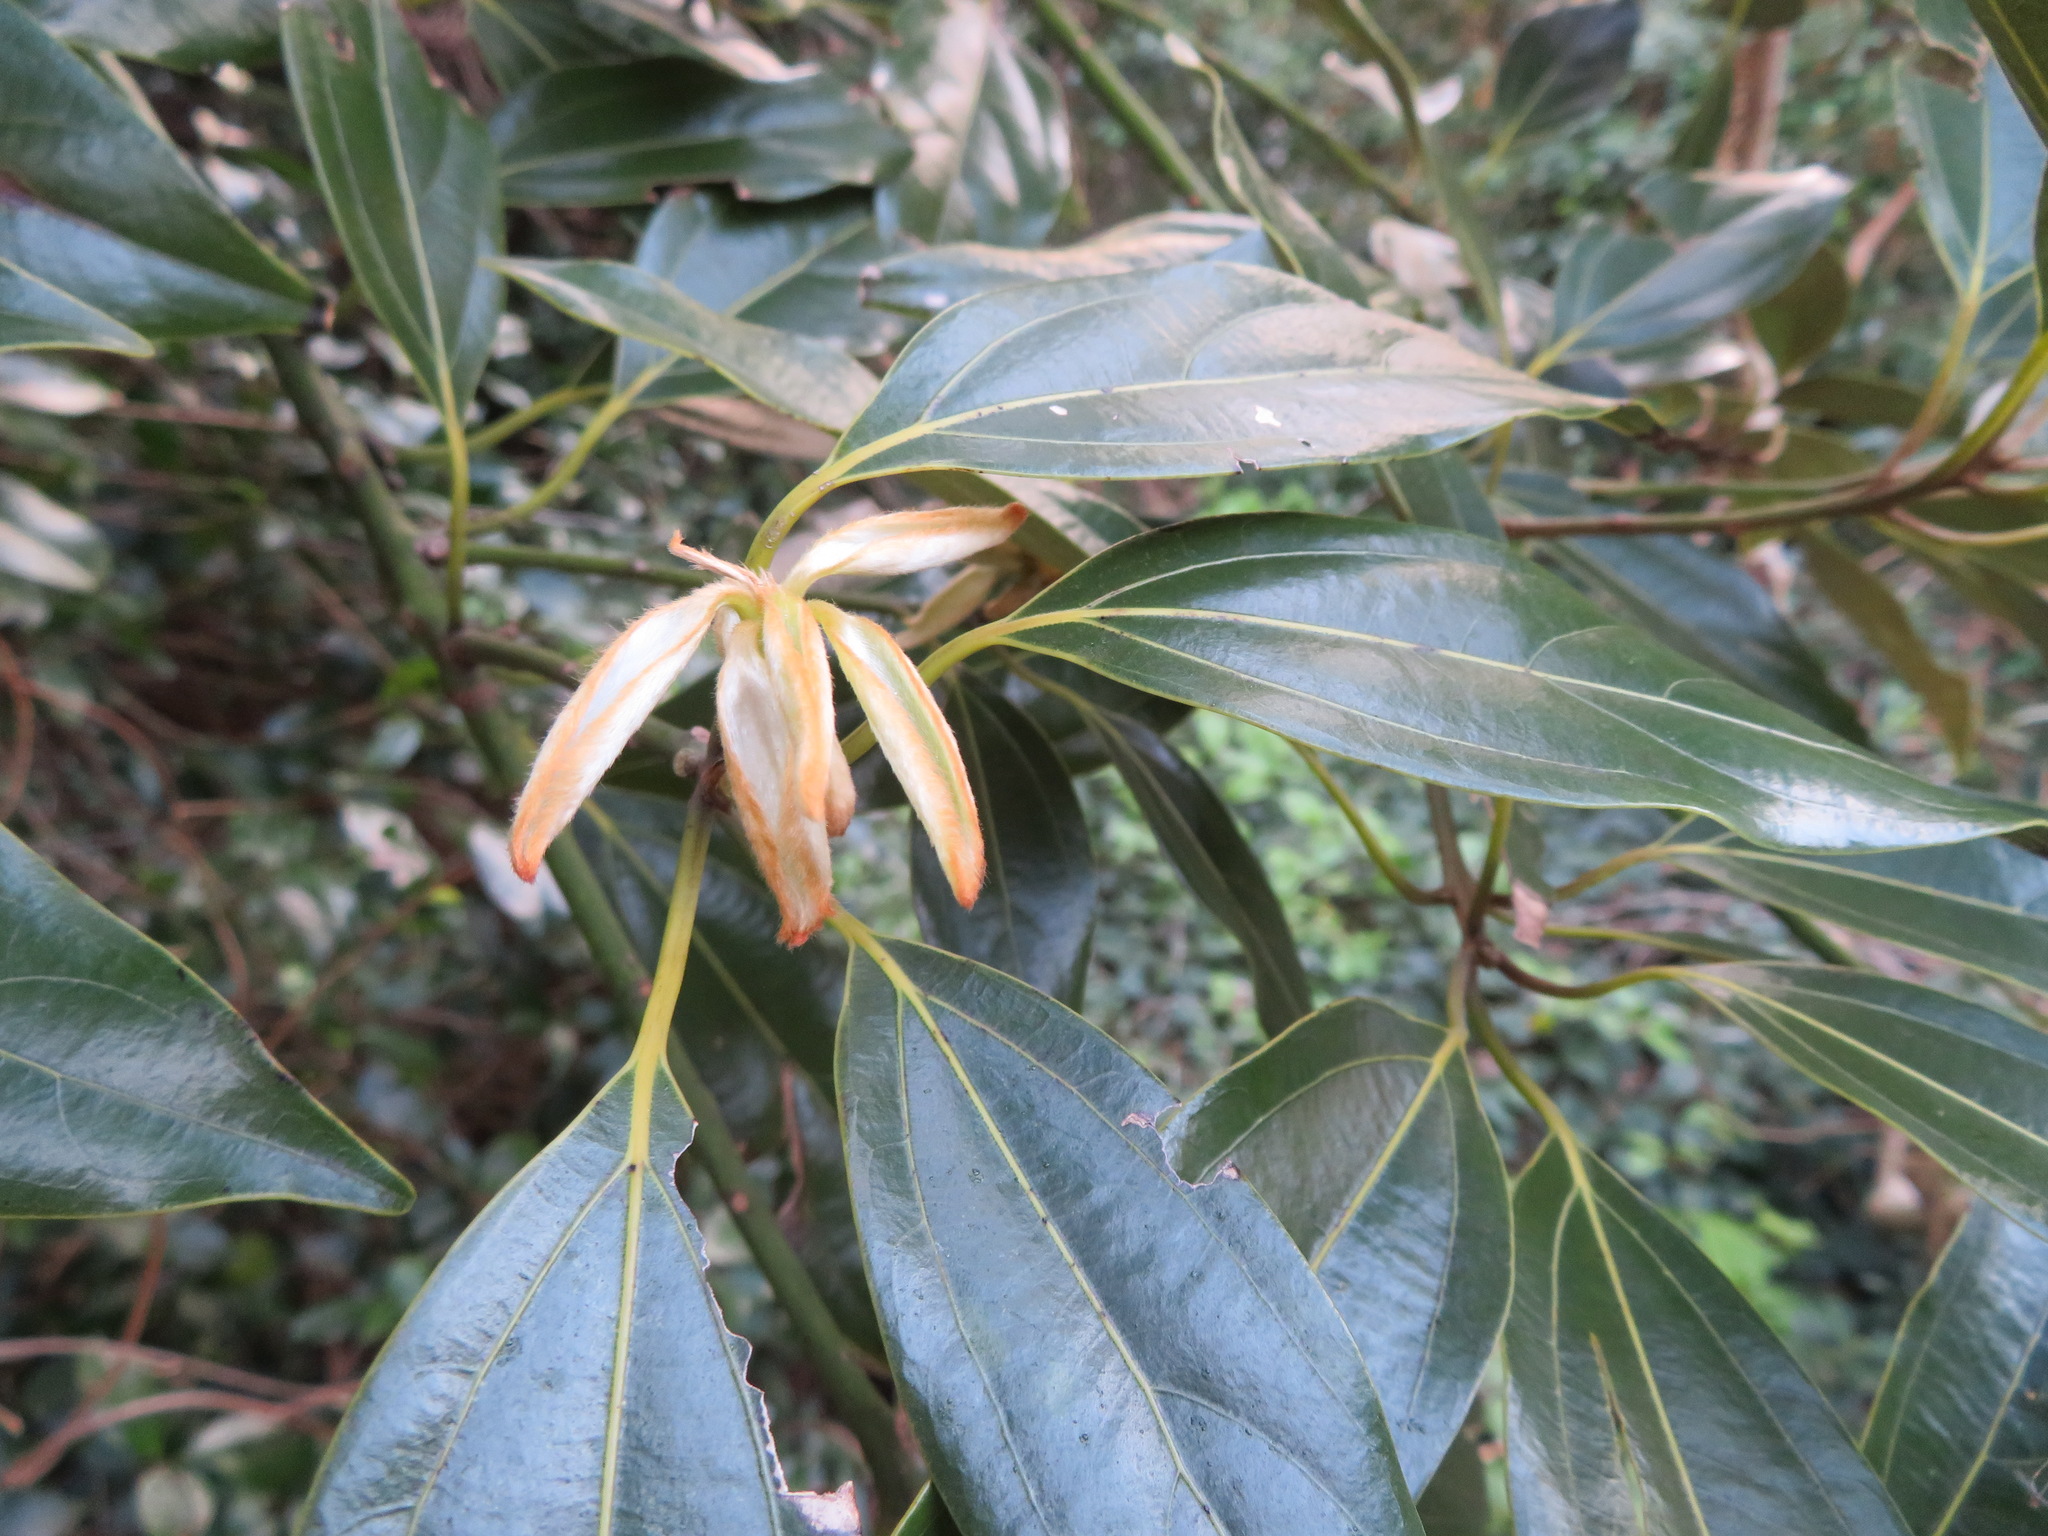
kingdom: Plantae
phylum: Tracheophyta
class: Magnoliopsida
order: Laurales
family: Lauraceae
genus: Neolitsea
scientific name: Neolitsea sericea
